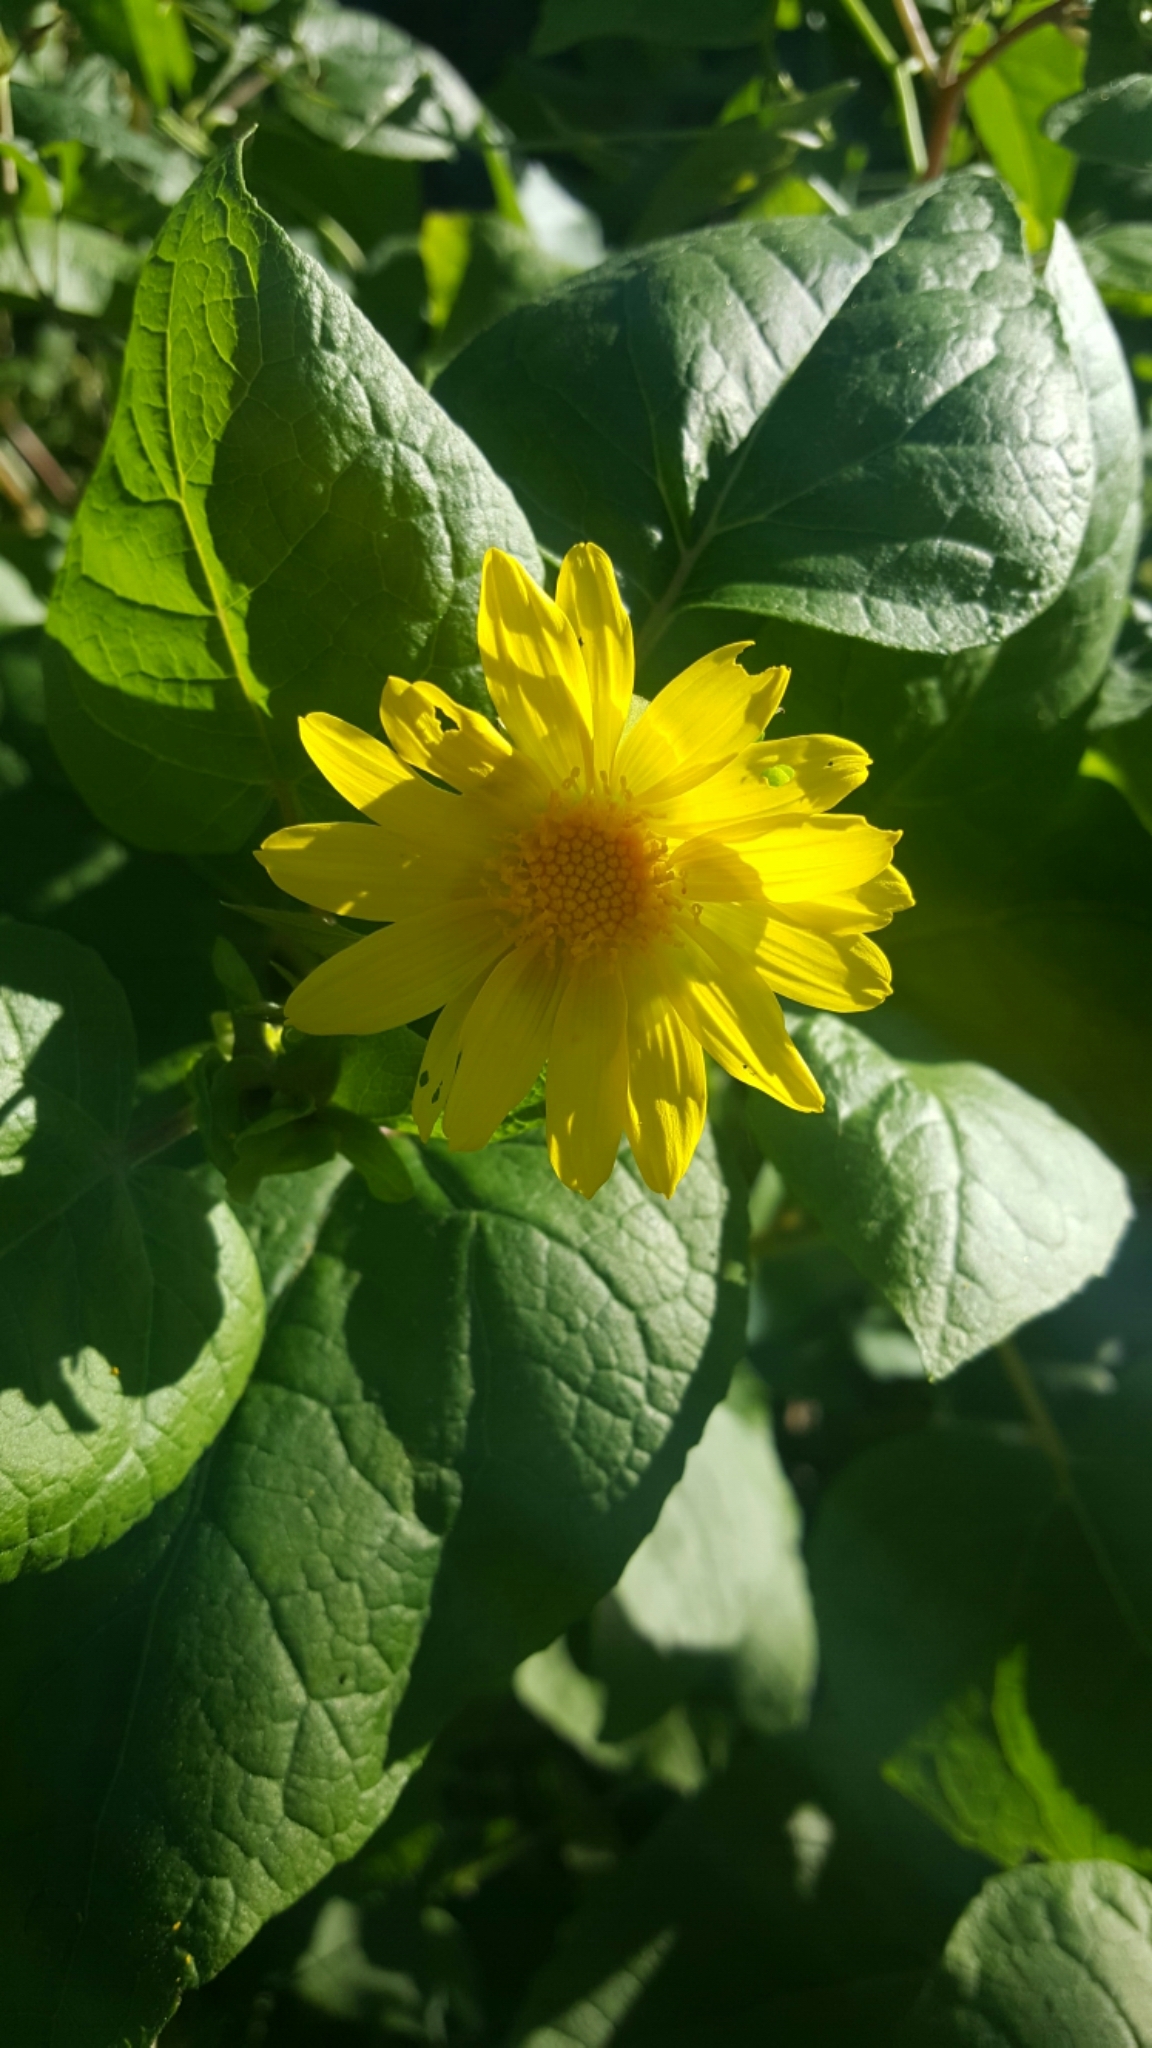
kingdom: Plantae
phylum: Tracheophyta
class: Magnoliopsida
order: Asterales
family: Asteraceae
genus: Venegasia
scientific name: Venegasia carpesioides
